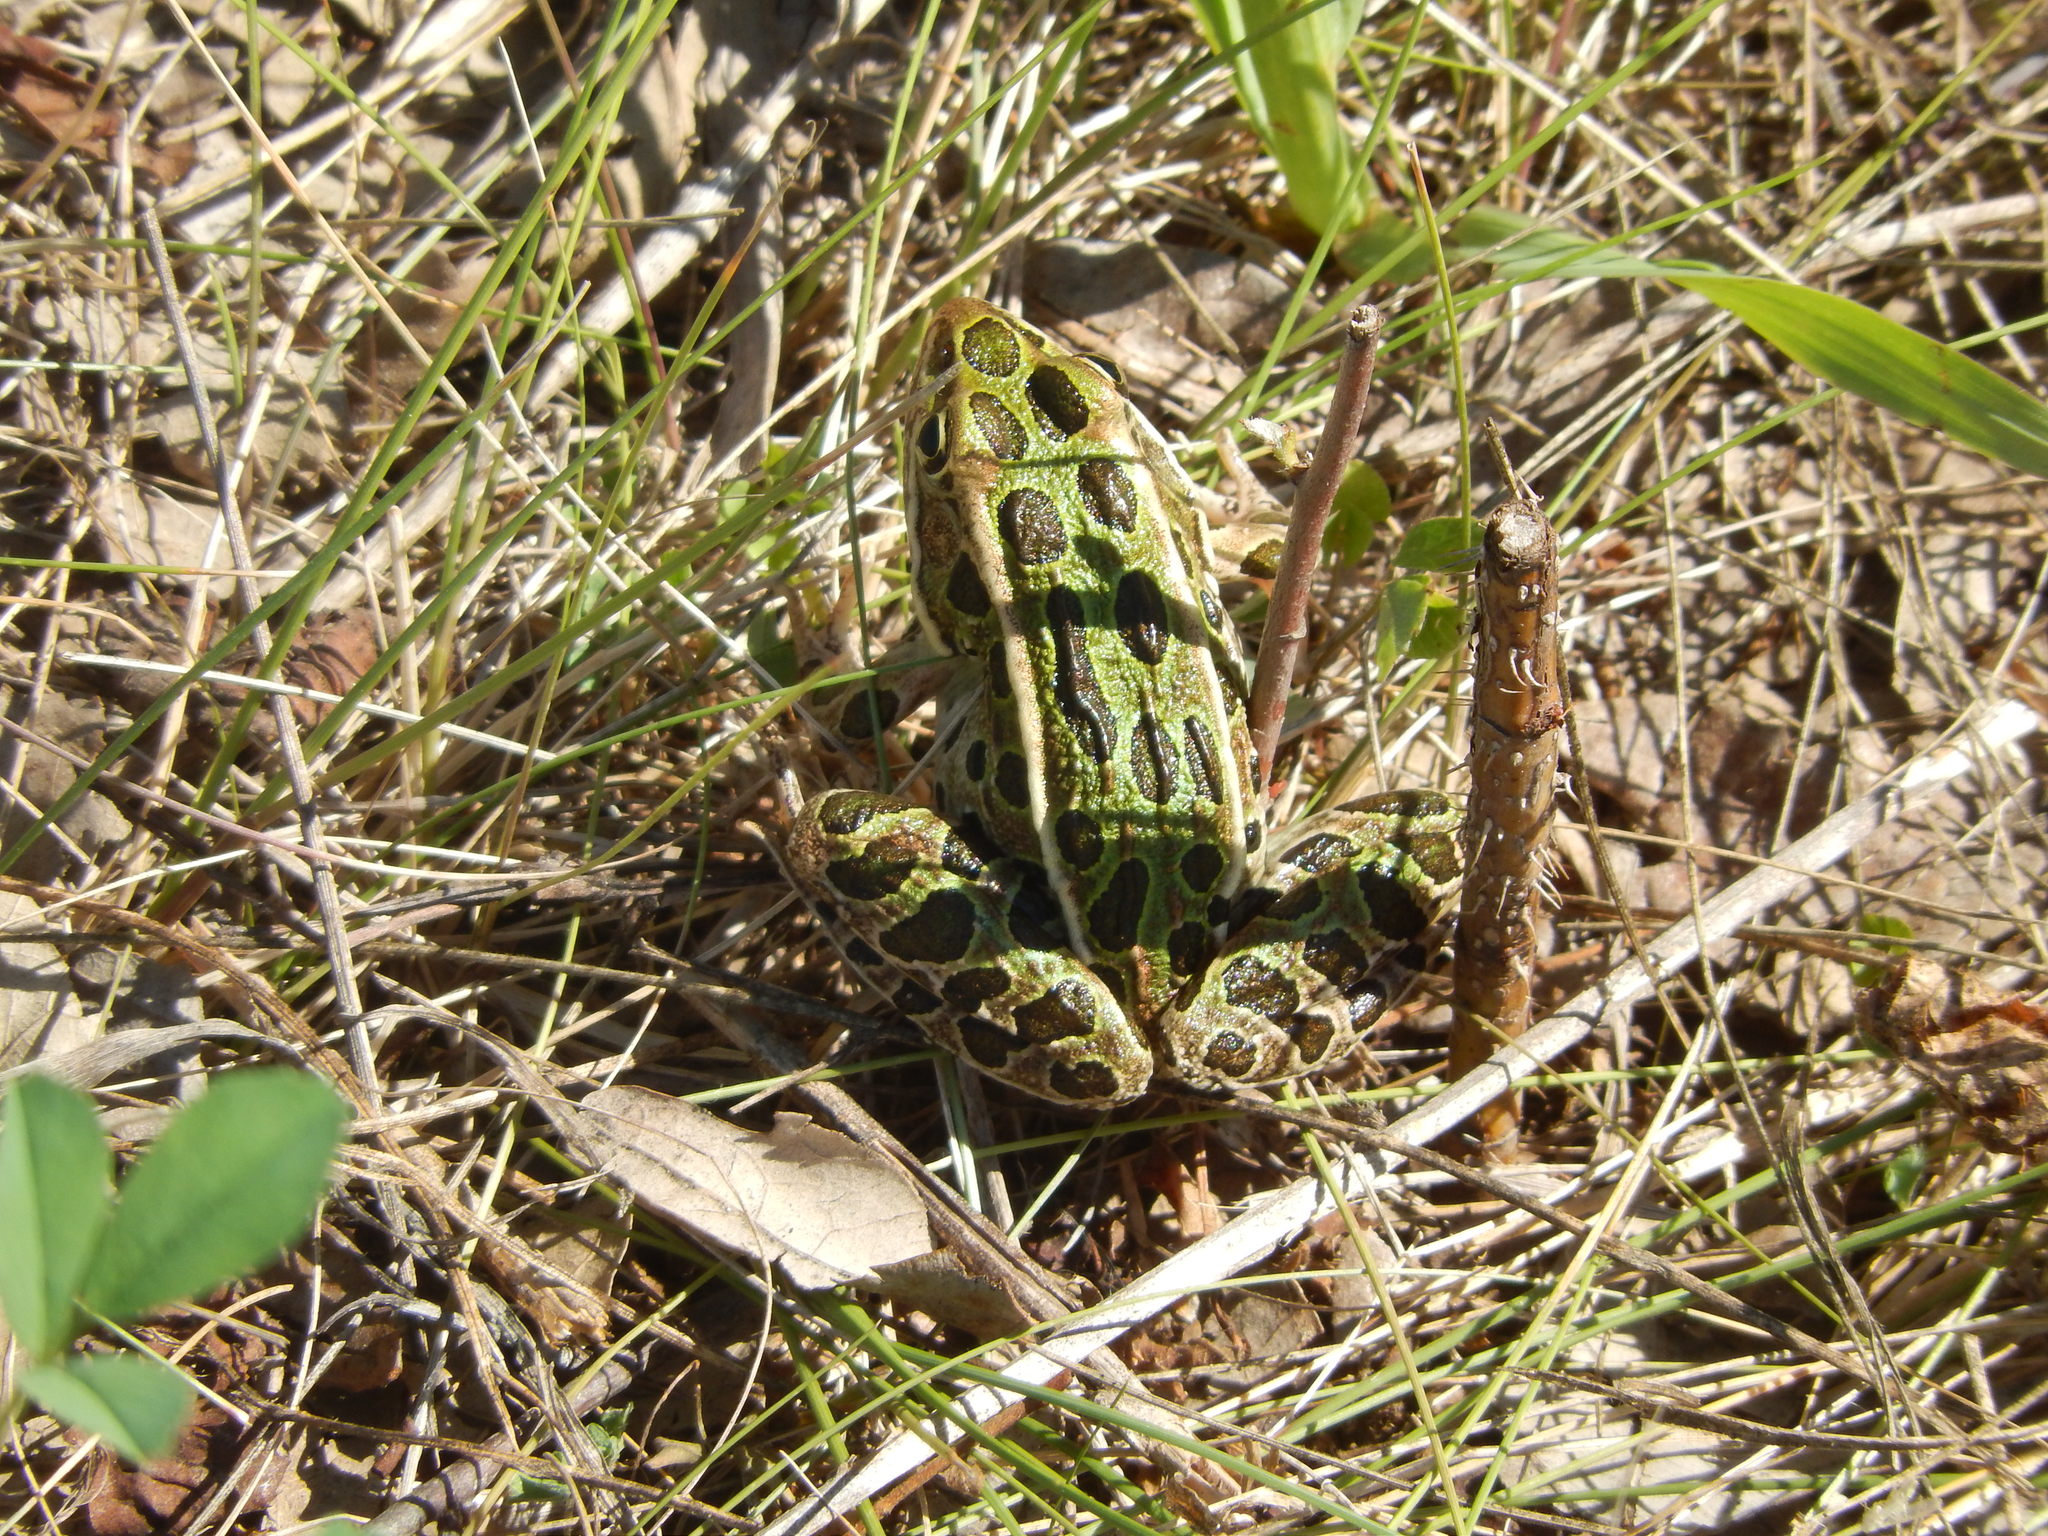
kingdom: Animalia
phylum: Chordata
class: Amphibia
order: Anura
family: Ranidae
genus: Lithobates
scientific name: Lithobates pipiens
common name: Northern leopard frog
